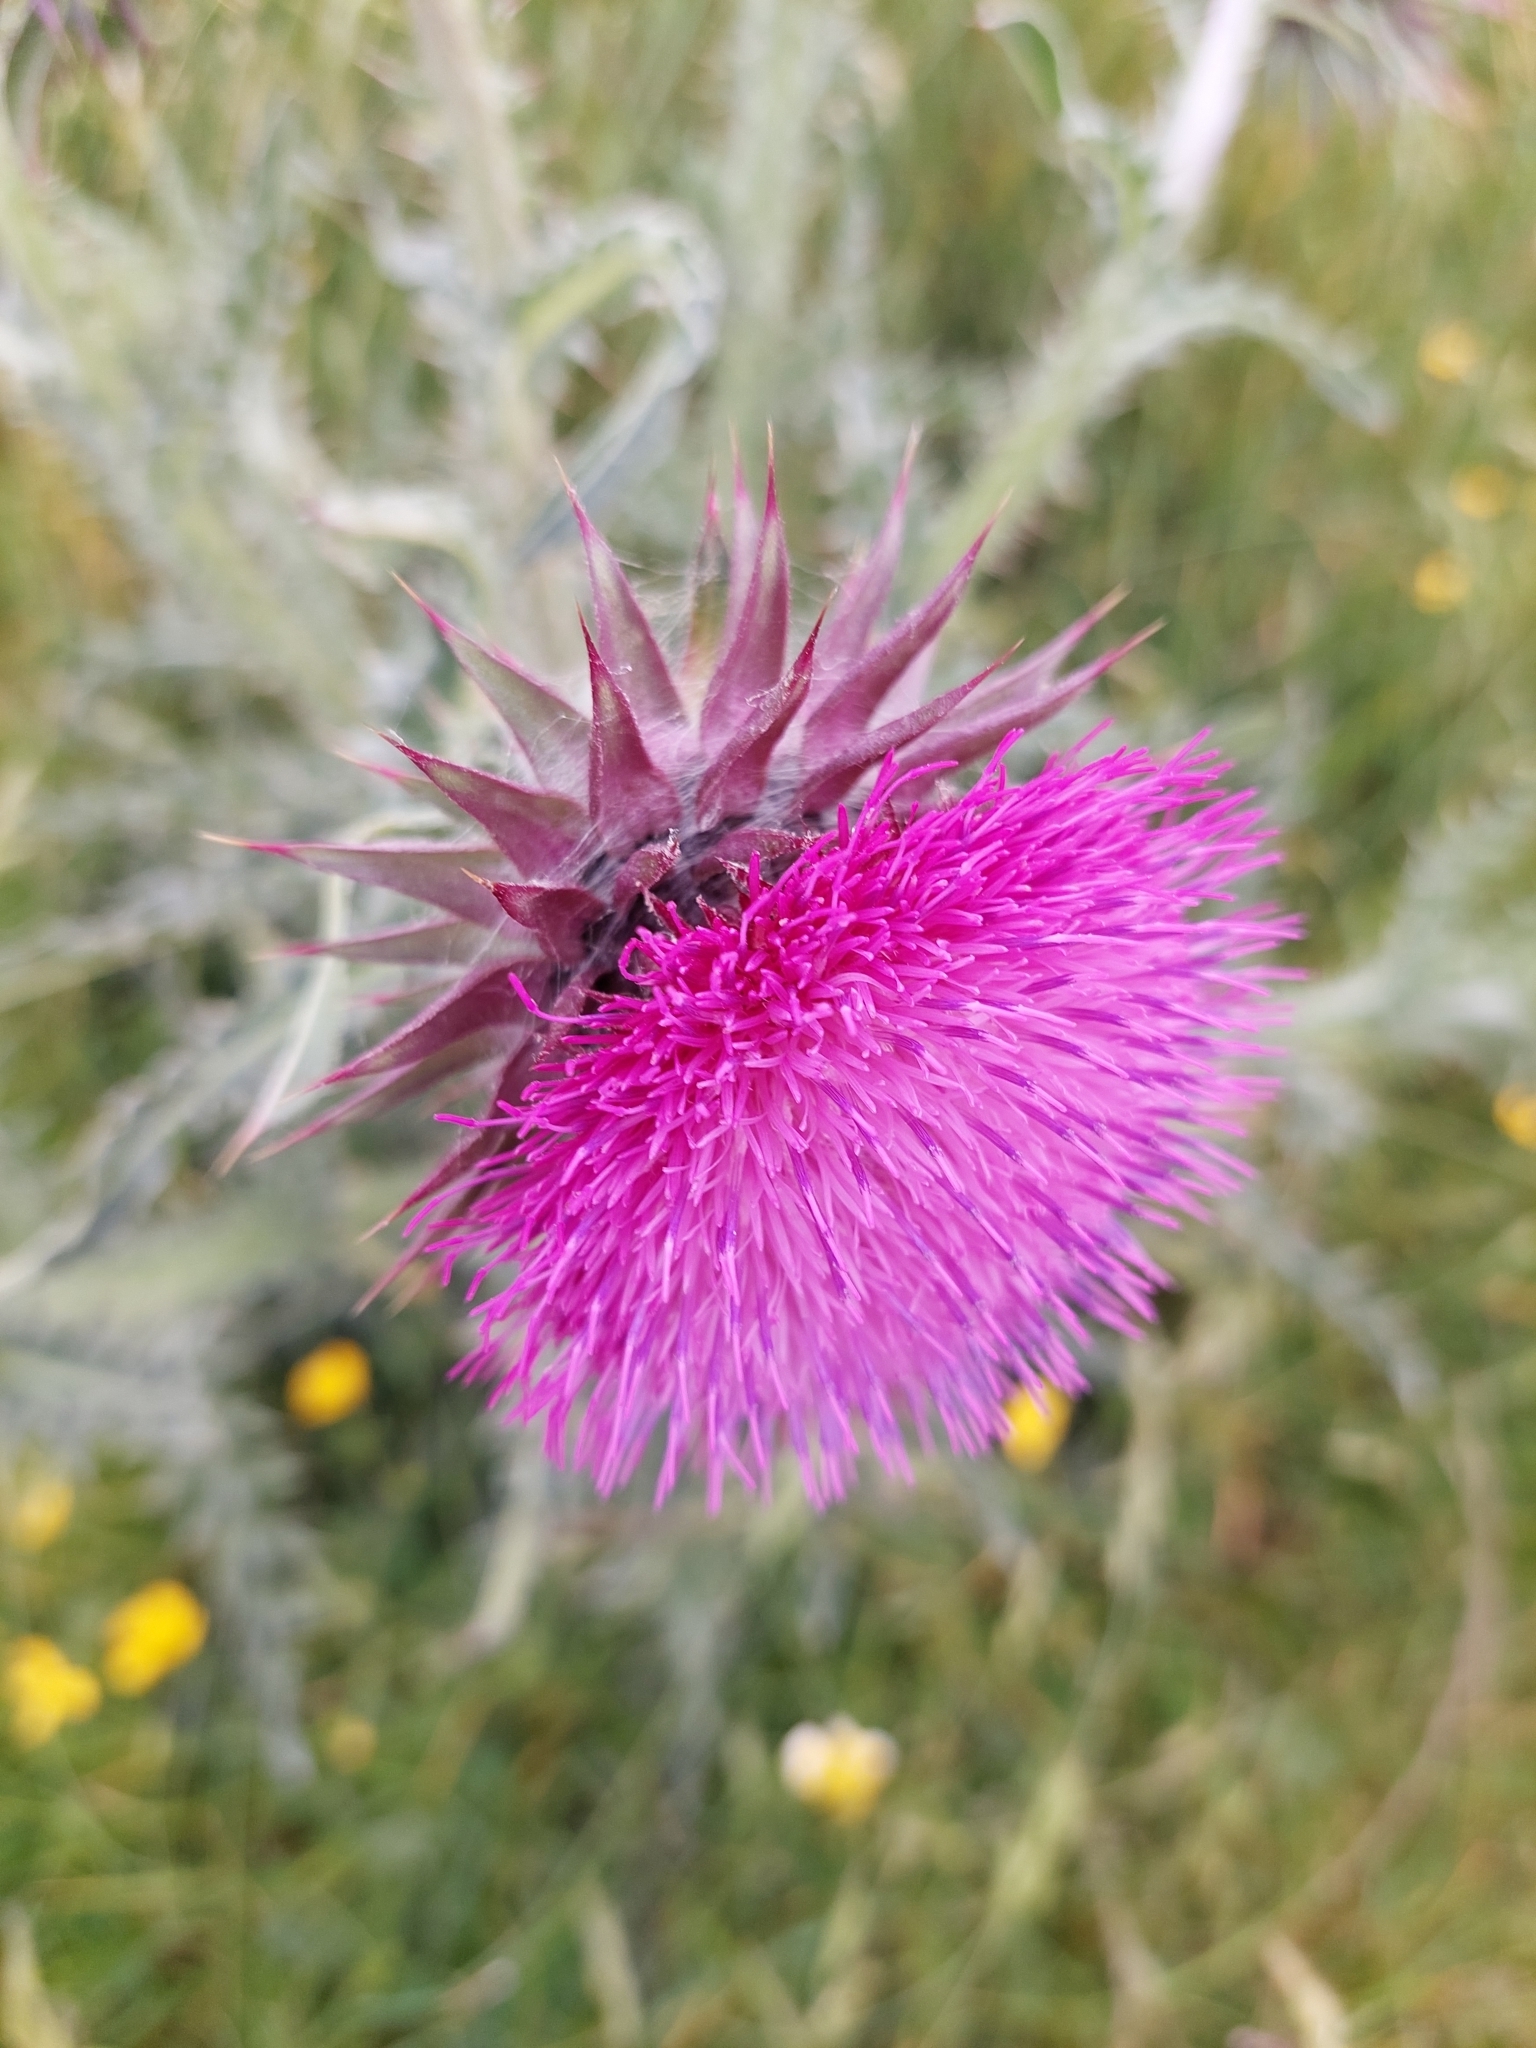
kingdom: Plantae
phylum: Tracheophyta
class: Magnoliopsida
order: Asterales
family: Asteraceae
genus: Carduus
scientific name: Carduus nutans
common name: Musk thistle
